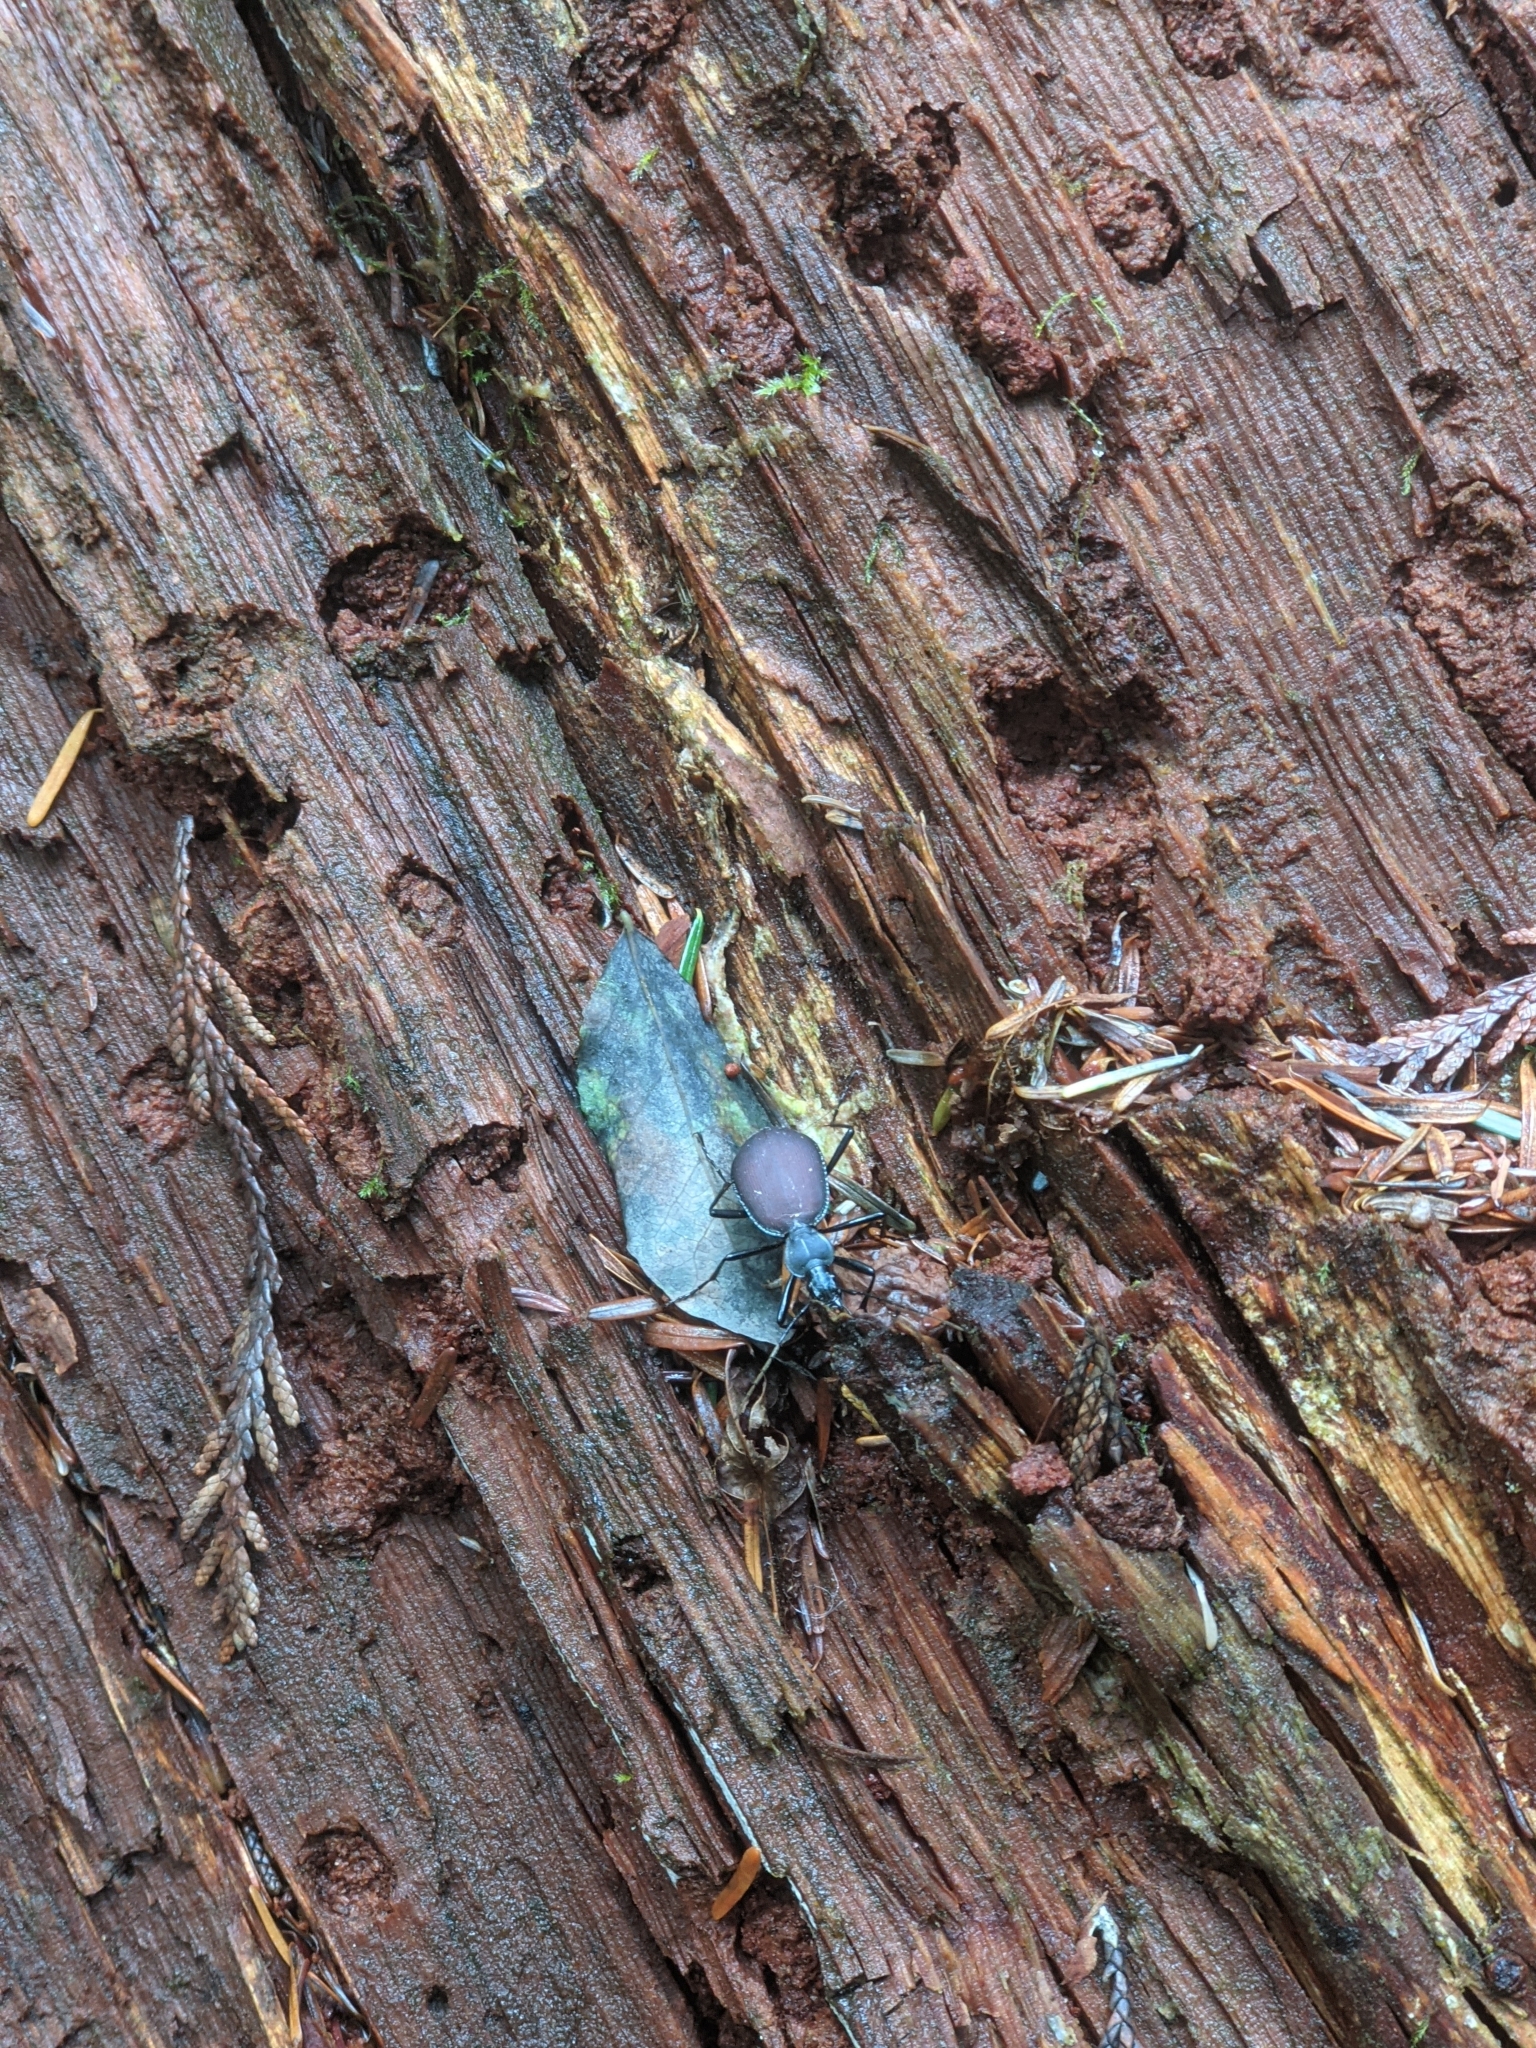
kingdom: Animalia
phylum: Arthropoda
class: Insecta
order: Coleoptera
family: Carabidae
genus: Scaphinotus
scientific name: Scaphinotus angusticollis
